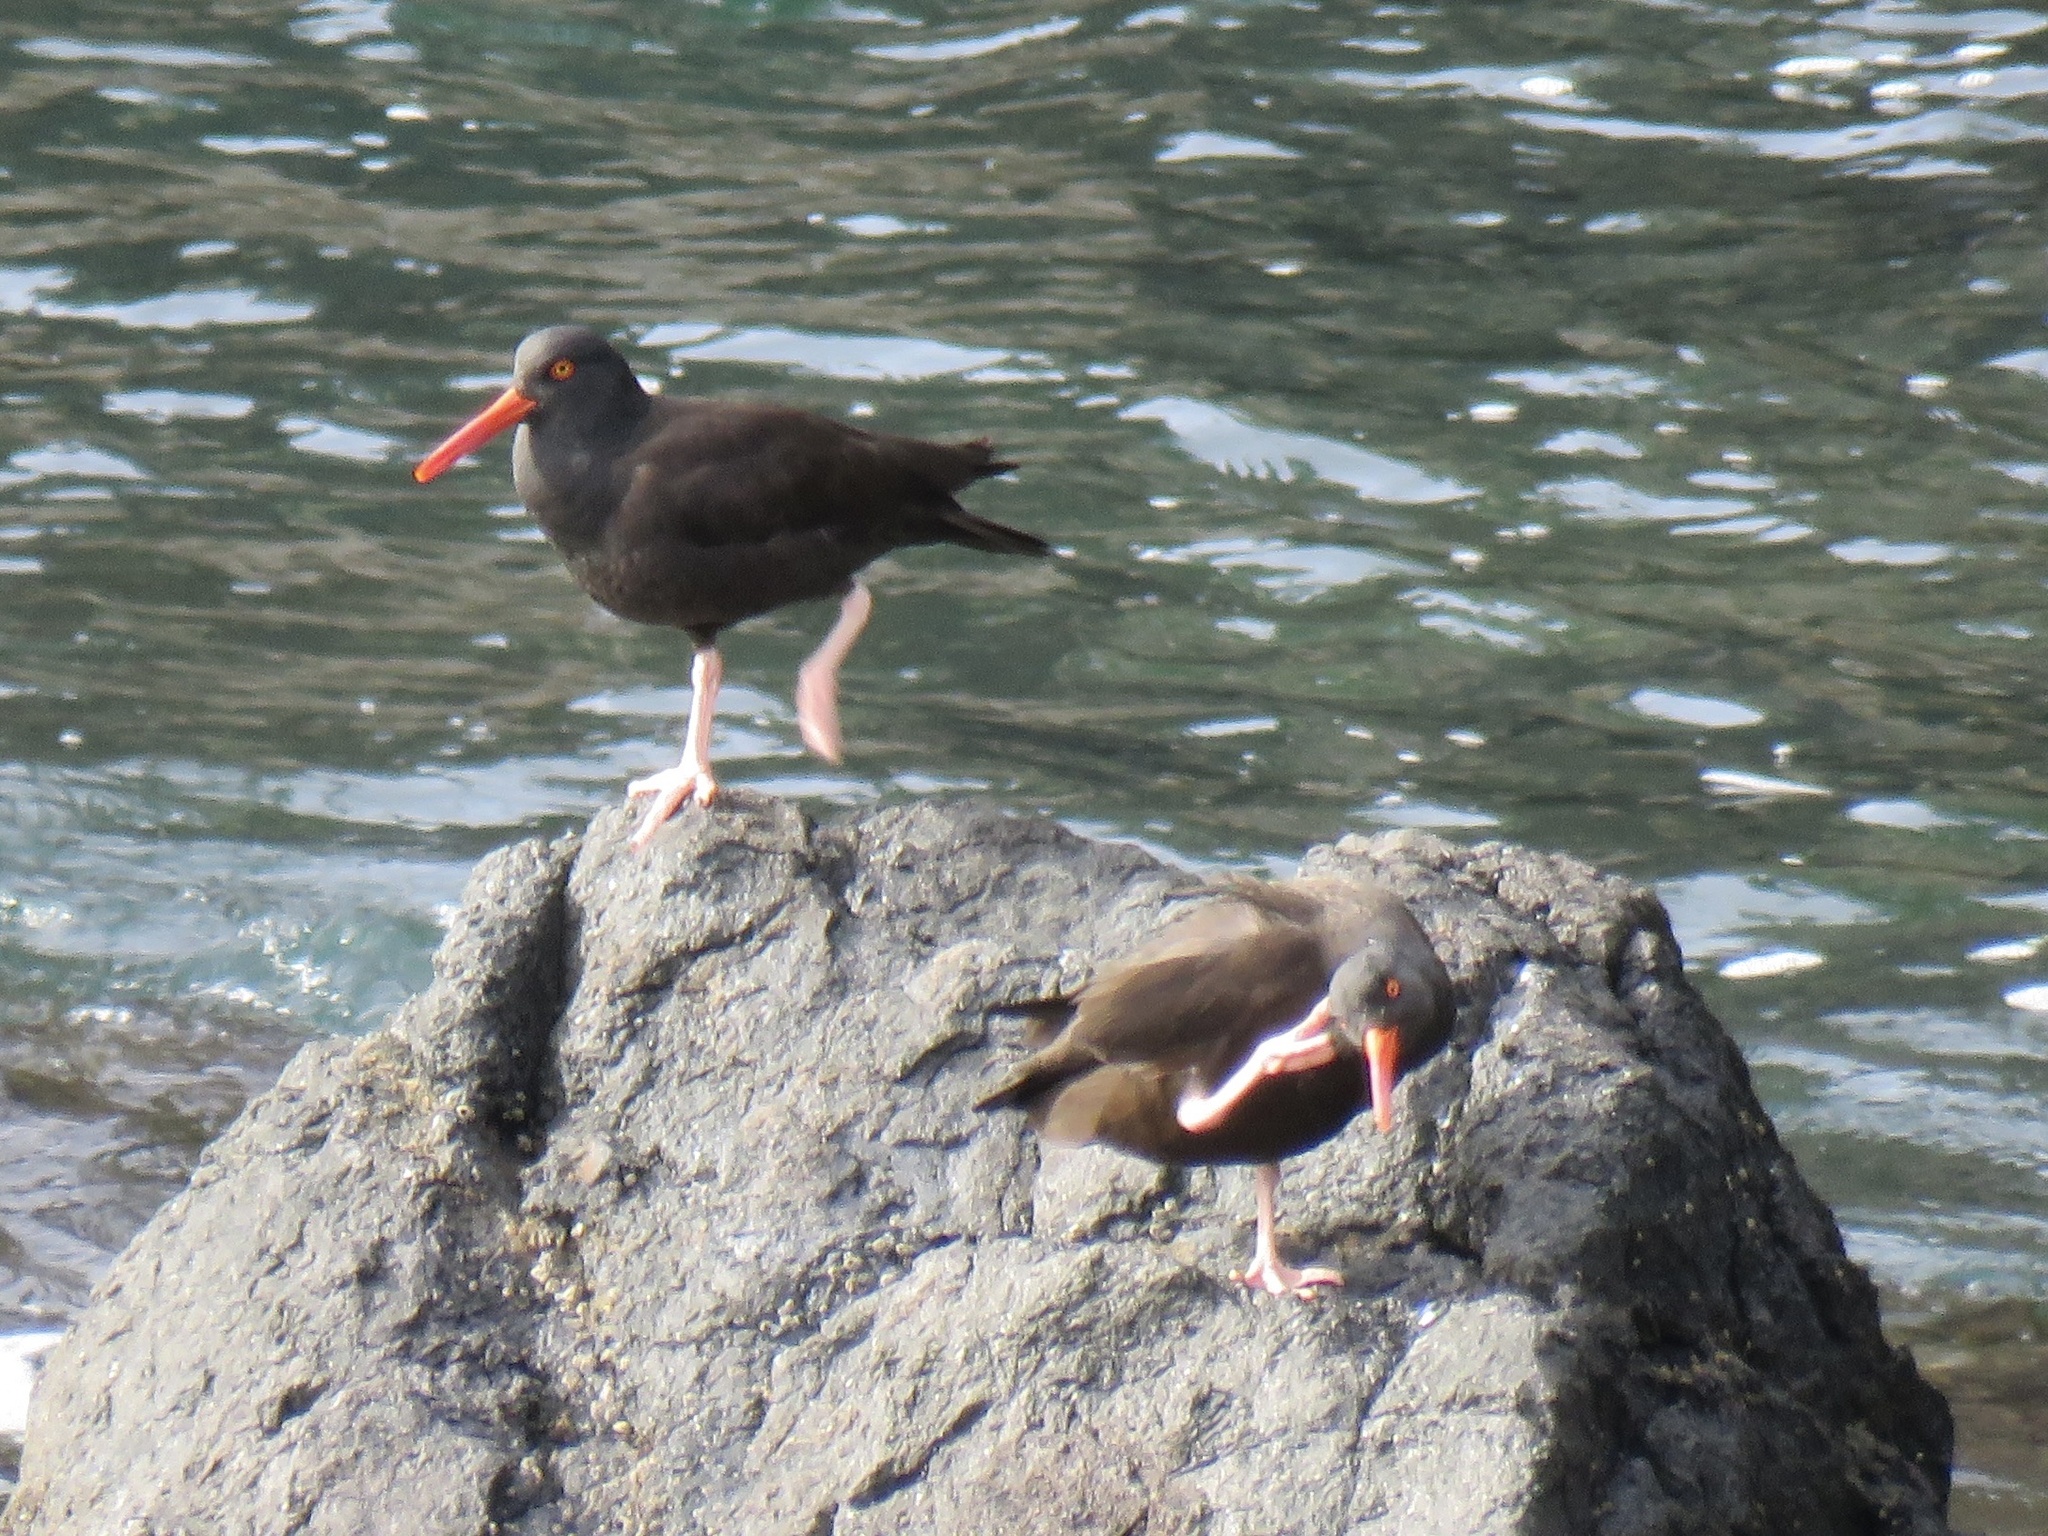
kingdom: Animalia
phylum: Chordata
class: Aves
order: Charadriiformes
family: Haematopodidae
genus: Haematopus
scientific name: Haematopus bachmani
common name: Black oystercatcher
